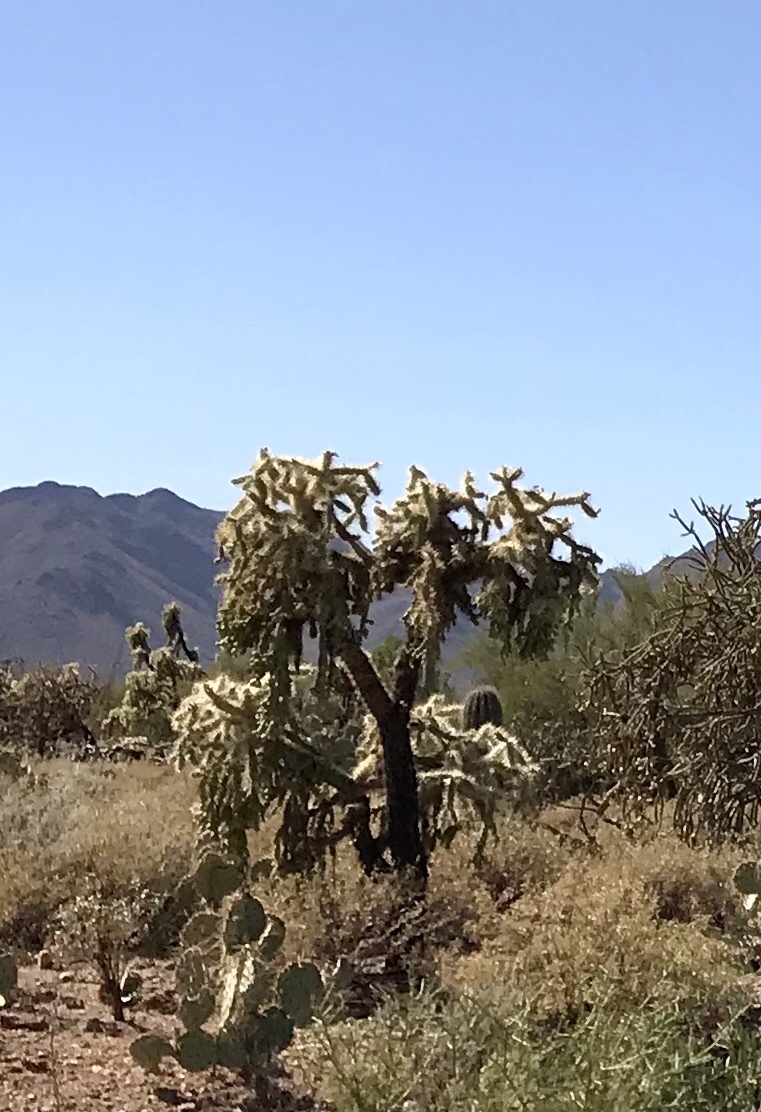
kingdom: Plantae
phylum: Tracheophyta
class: Magnoliopsida
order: Caryophyllales
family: Cactaceae
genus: Cylindropuntia
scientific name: Cylindropuntia fulgida
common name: Jumping cholla
